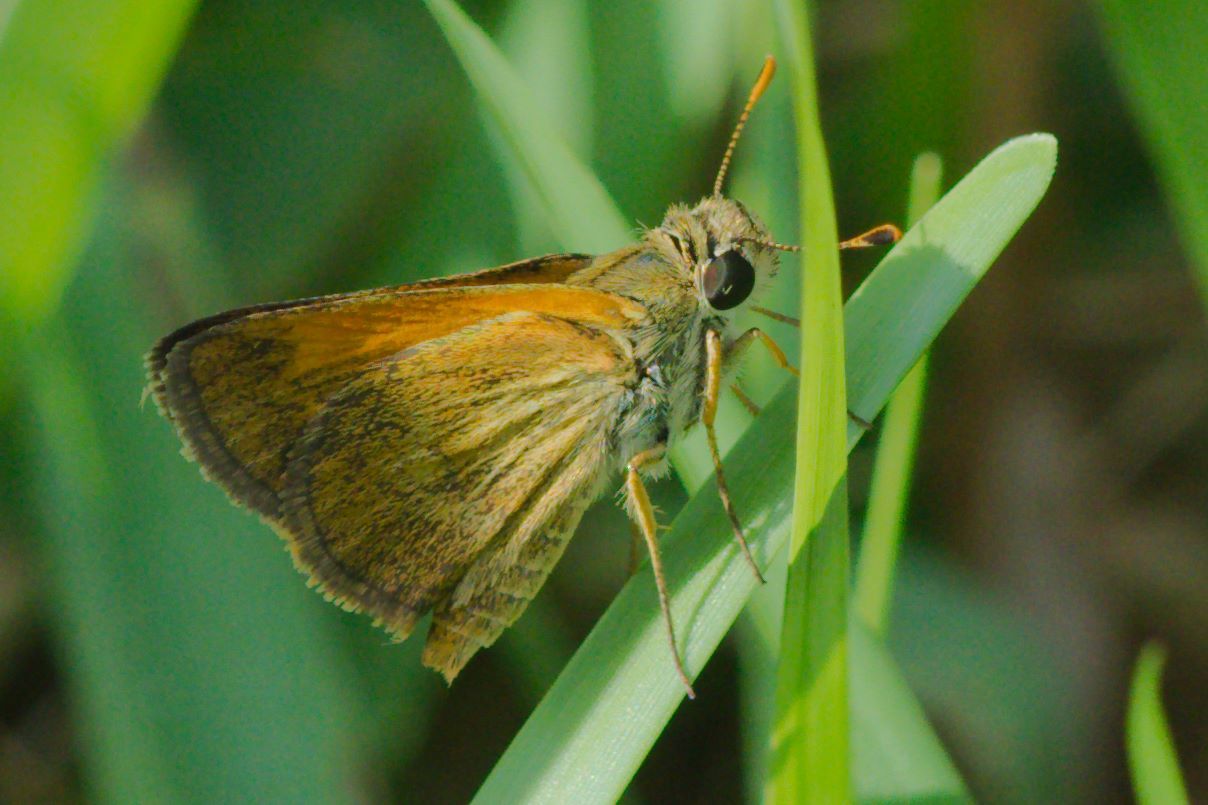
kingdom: Animalia
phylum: Arthropoda
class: Insecta
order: Lepidoptera
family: Hesperiidae
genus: Polites
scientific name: Polites baracoa
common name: Baracoa skipper
